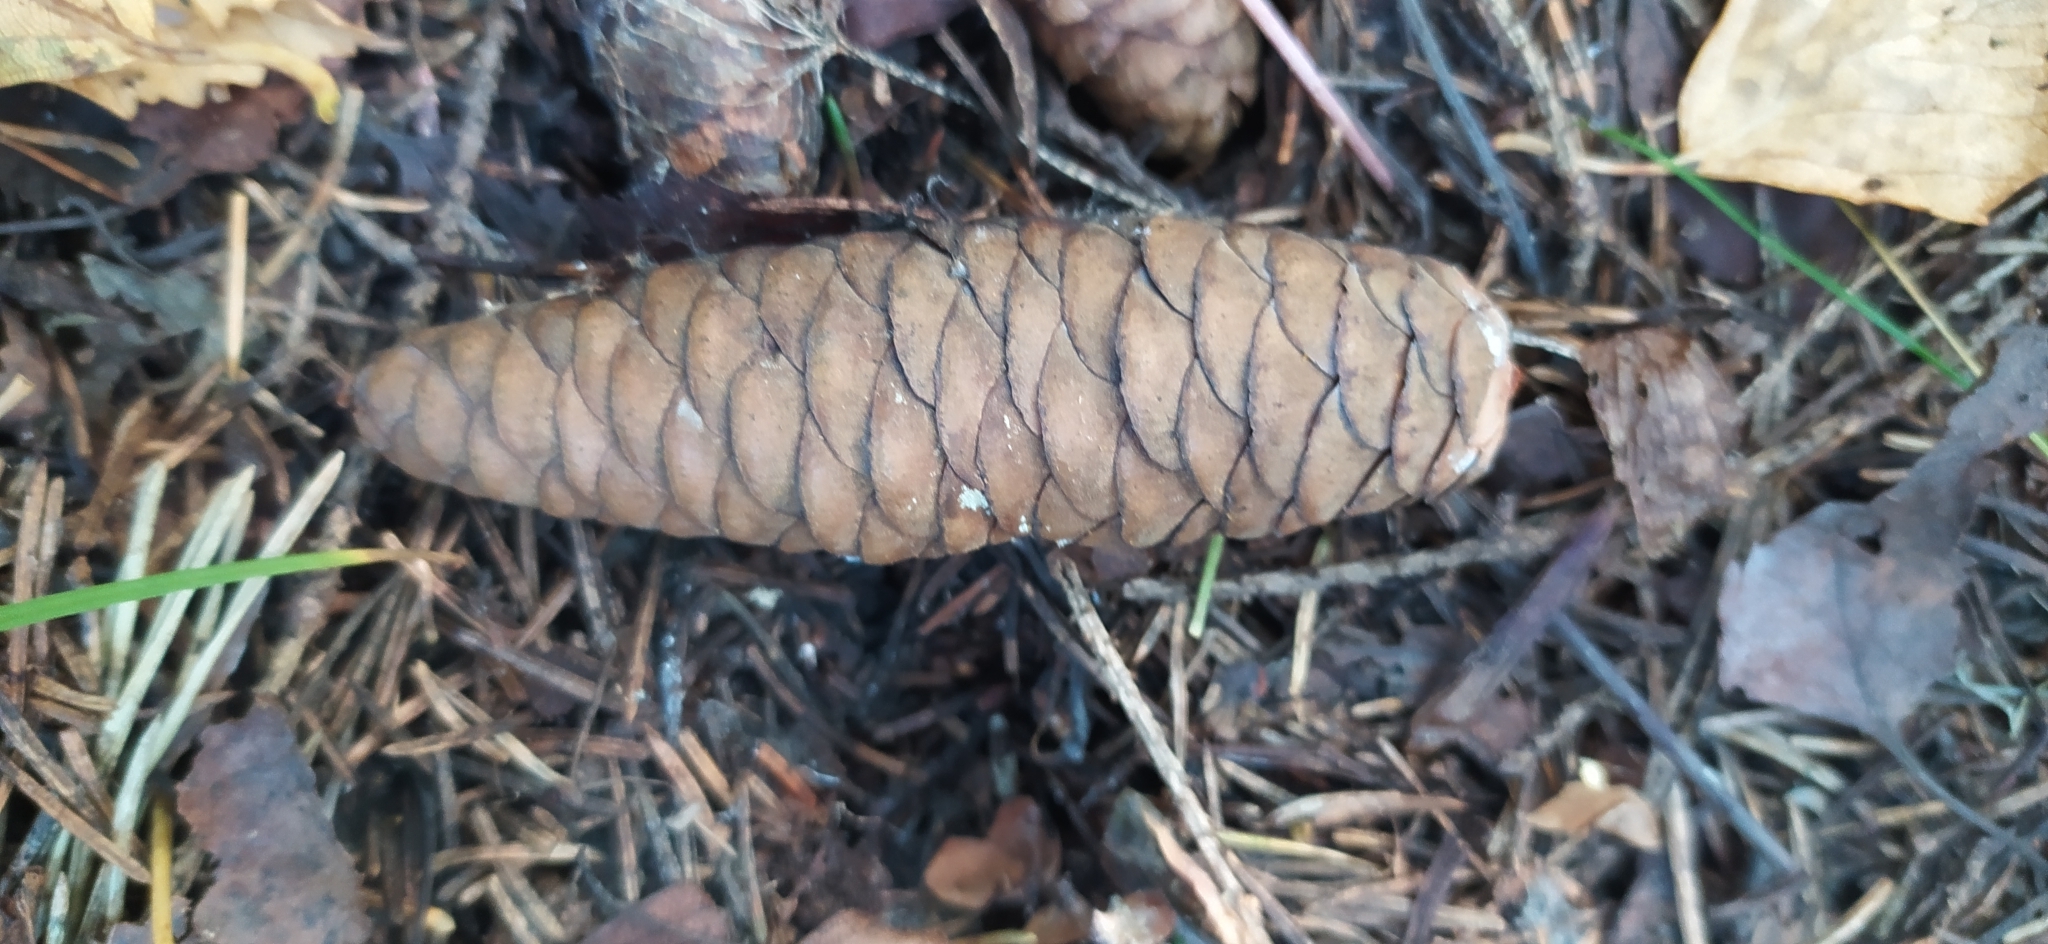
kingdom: Plantae
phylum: Tracheophyta
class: Pinopsida
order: Pinales
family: Pinaceae
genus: Picea
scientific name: Picea obovata
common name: Siberian spruce
